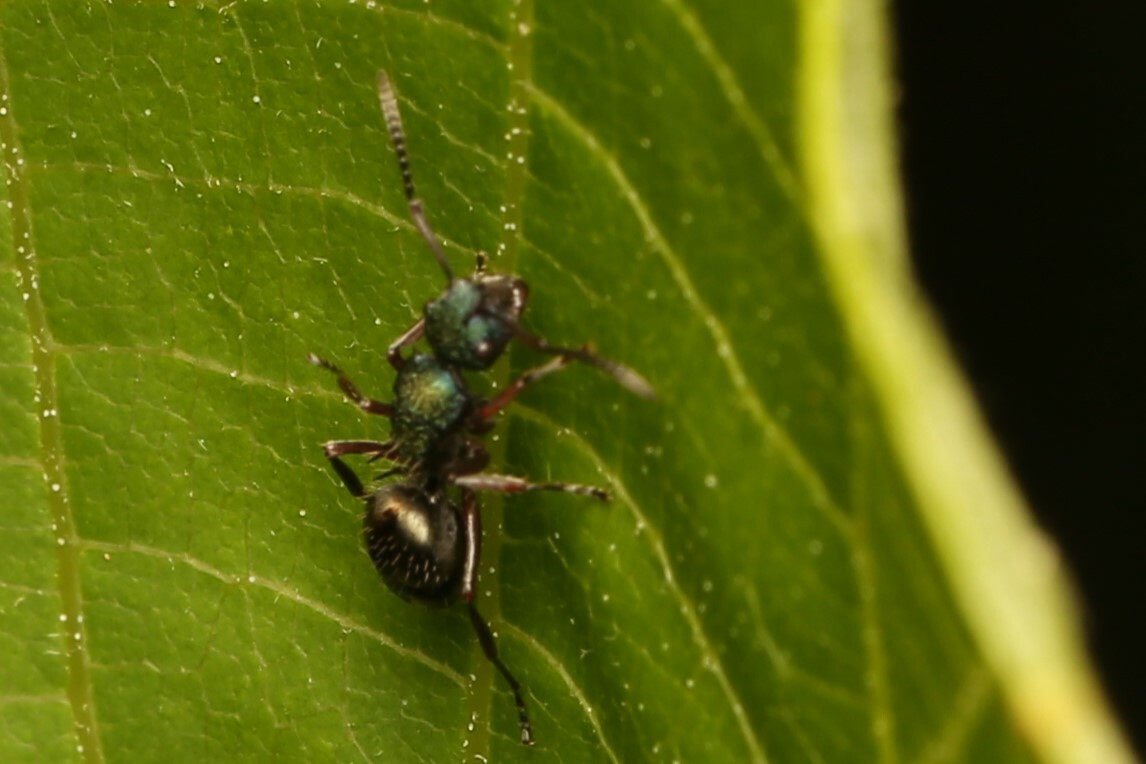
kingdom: Animalia
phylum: Arthropoda
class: Insecta
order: Hymenoptera
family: Formicidae
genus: Polyrhachis
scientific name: Polyrhachis hookeri
